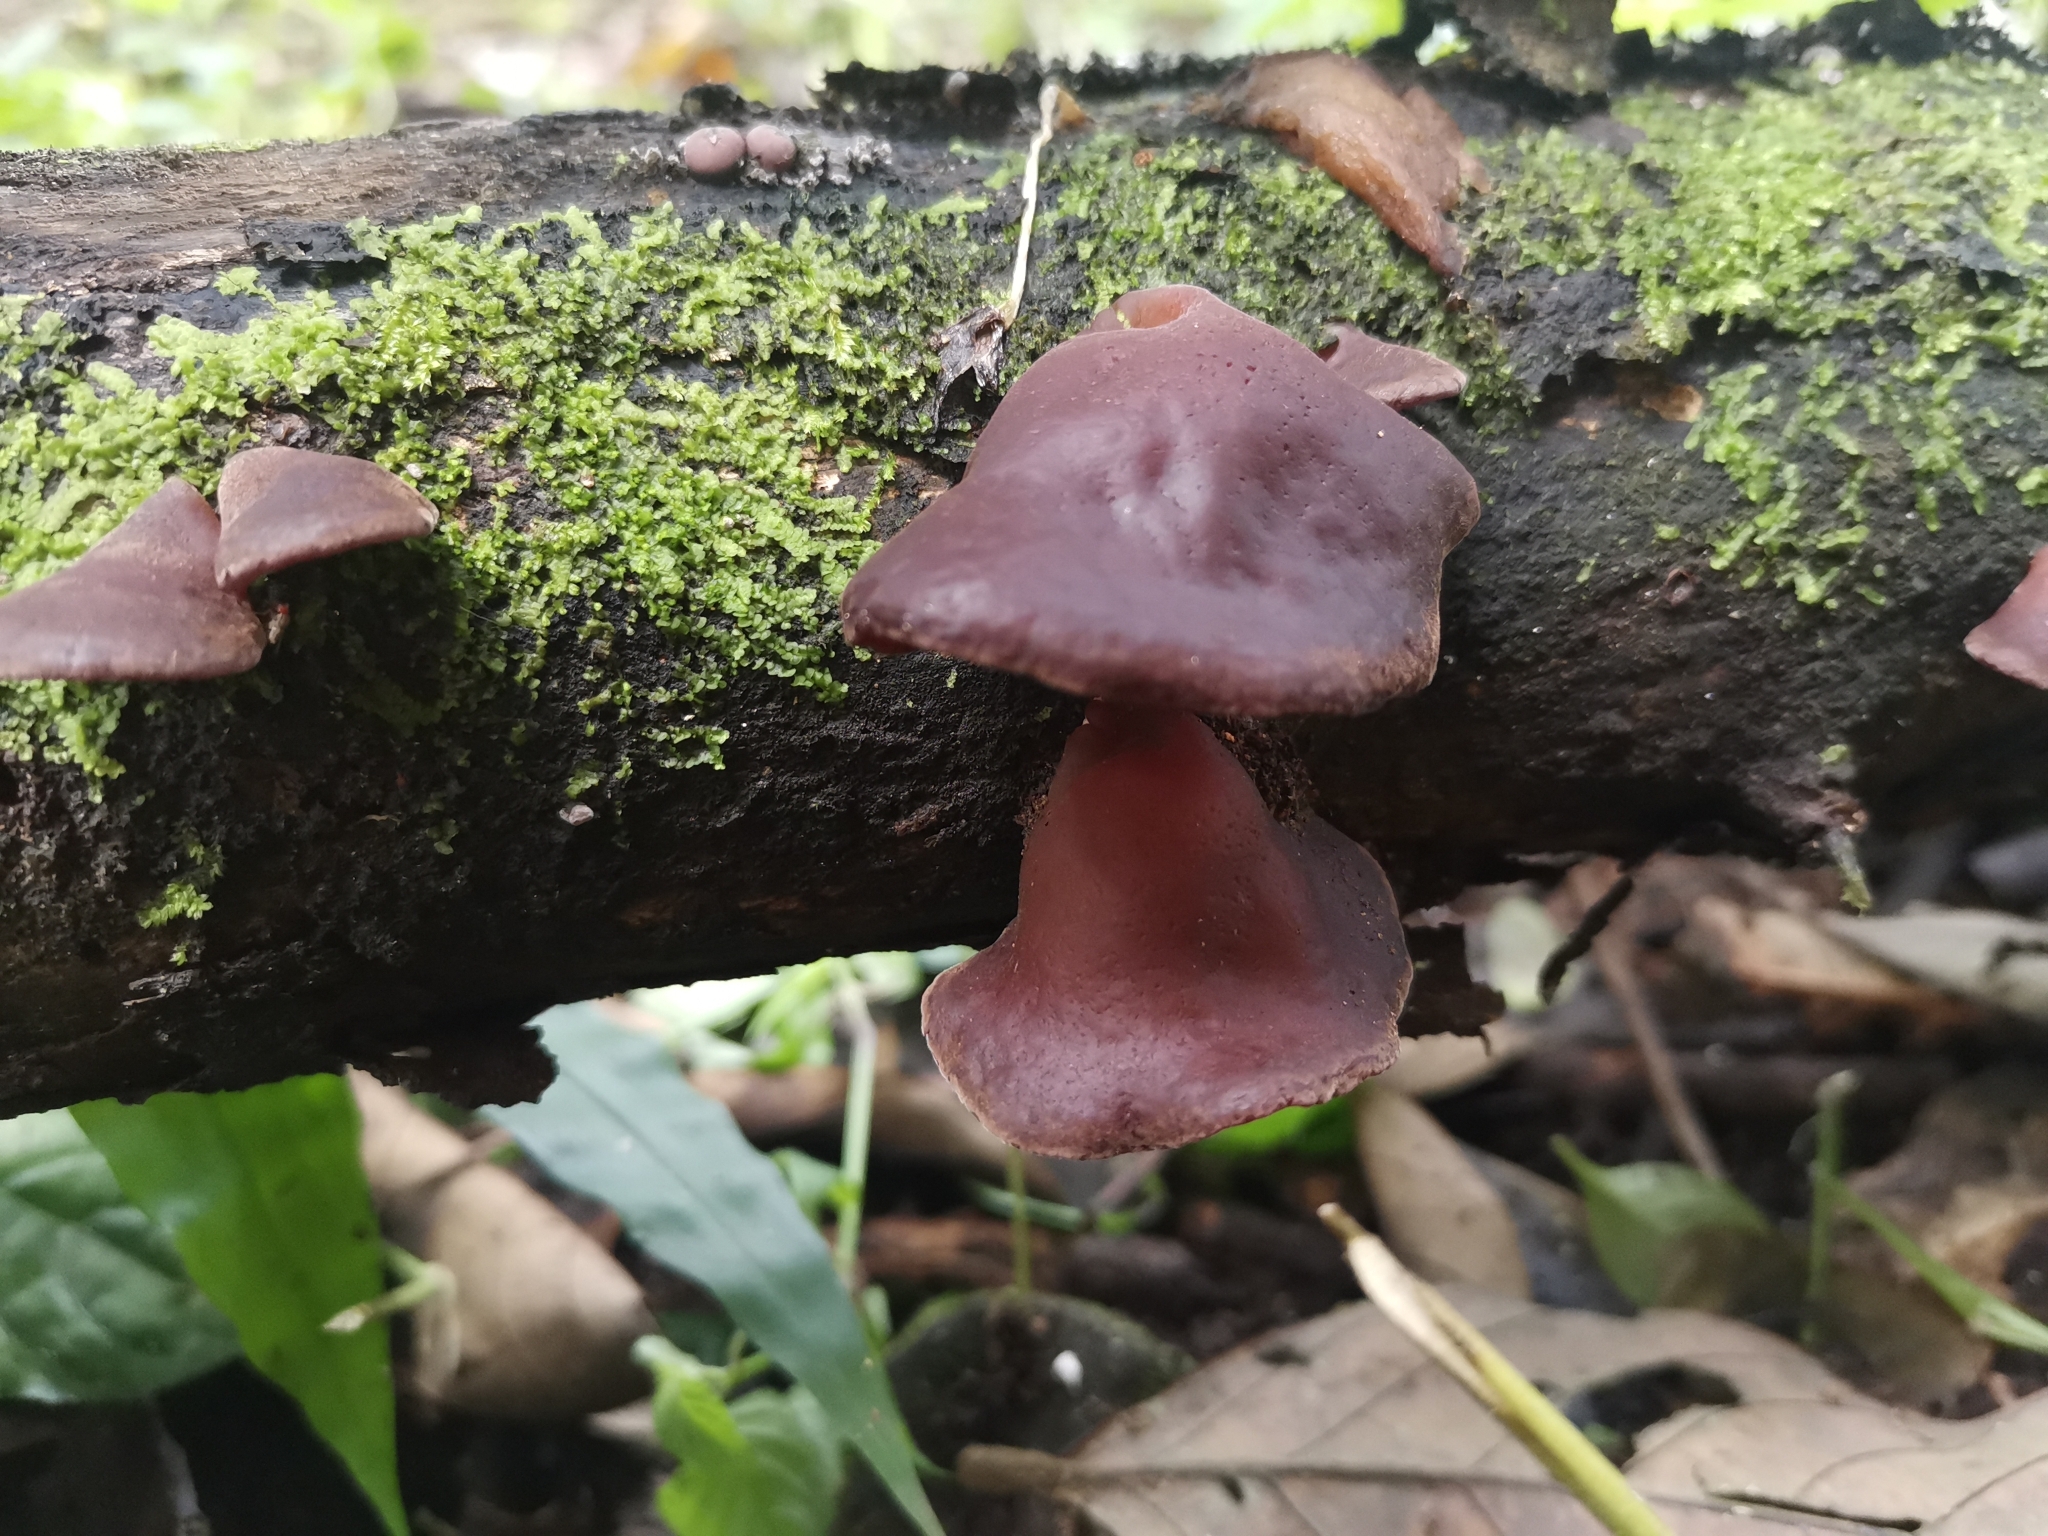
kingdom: Fungi
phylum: Basidiomycota
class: Agaricomycetes
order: Auriculariales
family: Auriculariaceae
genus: Auricularia
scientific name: Auricularia fuscosuccinea
